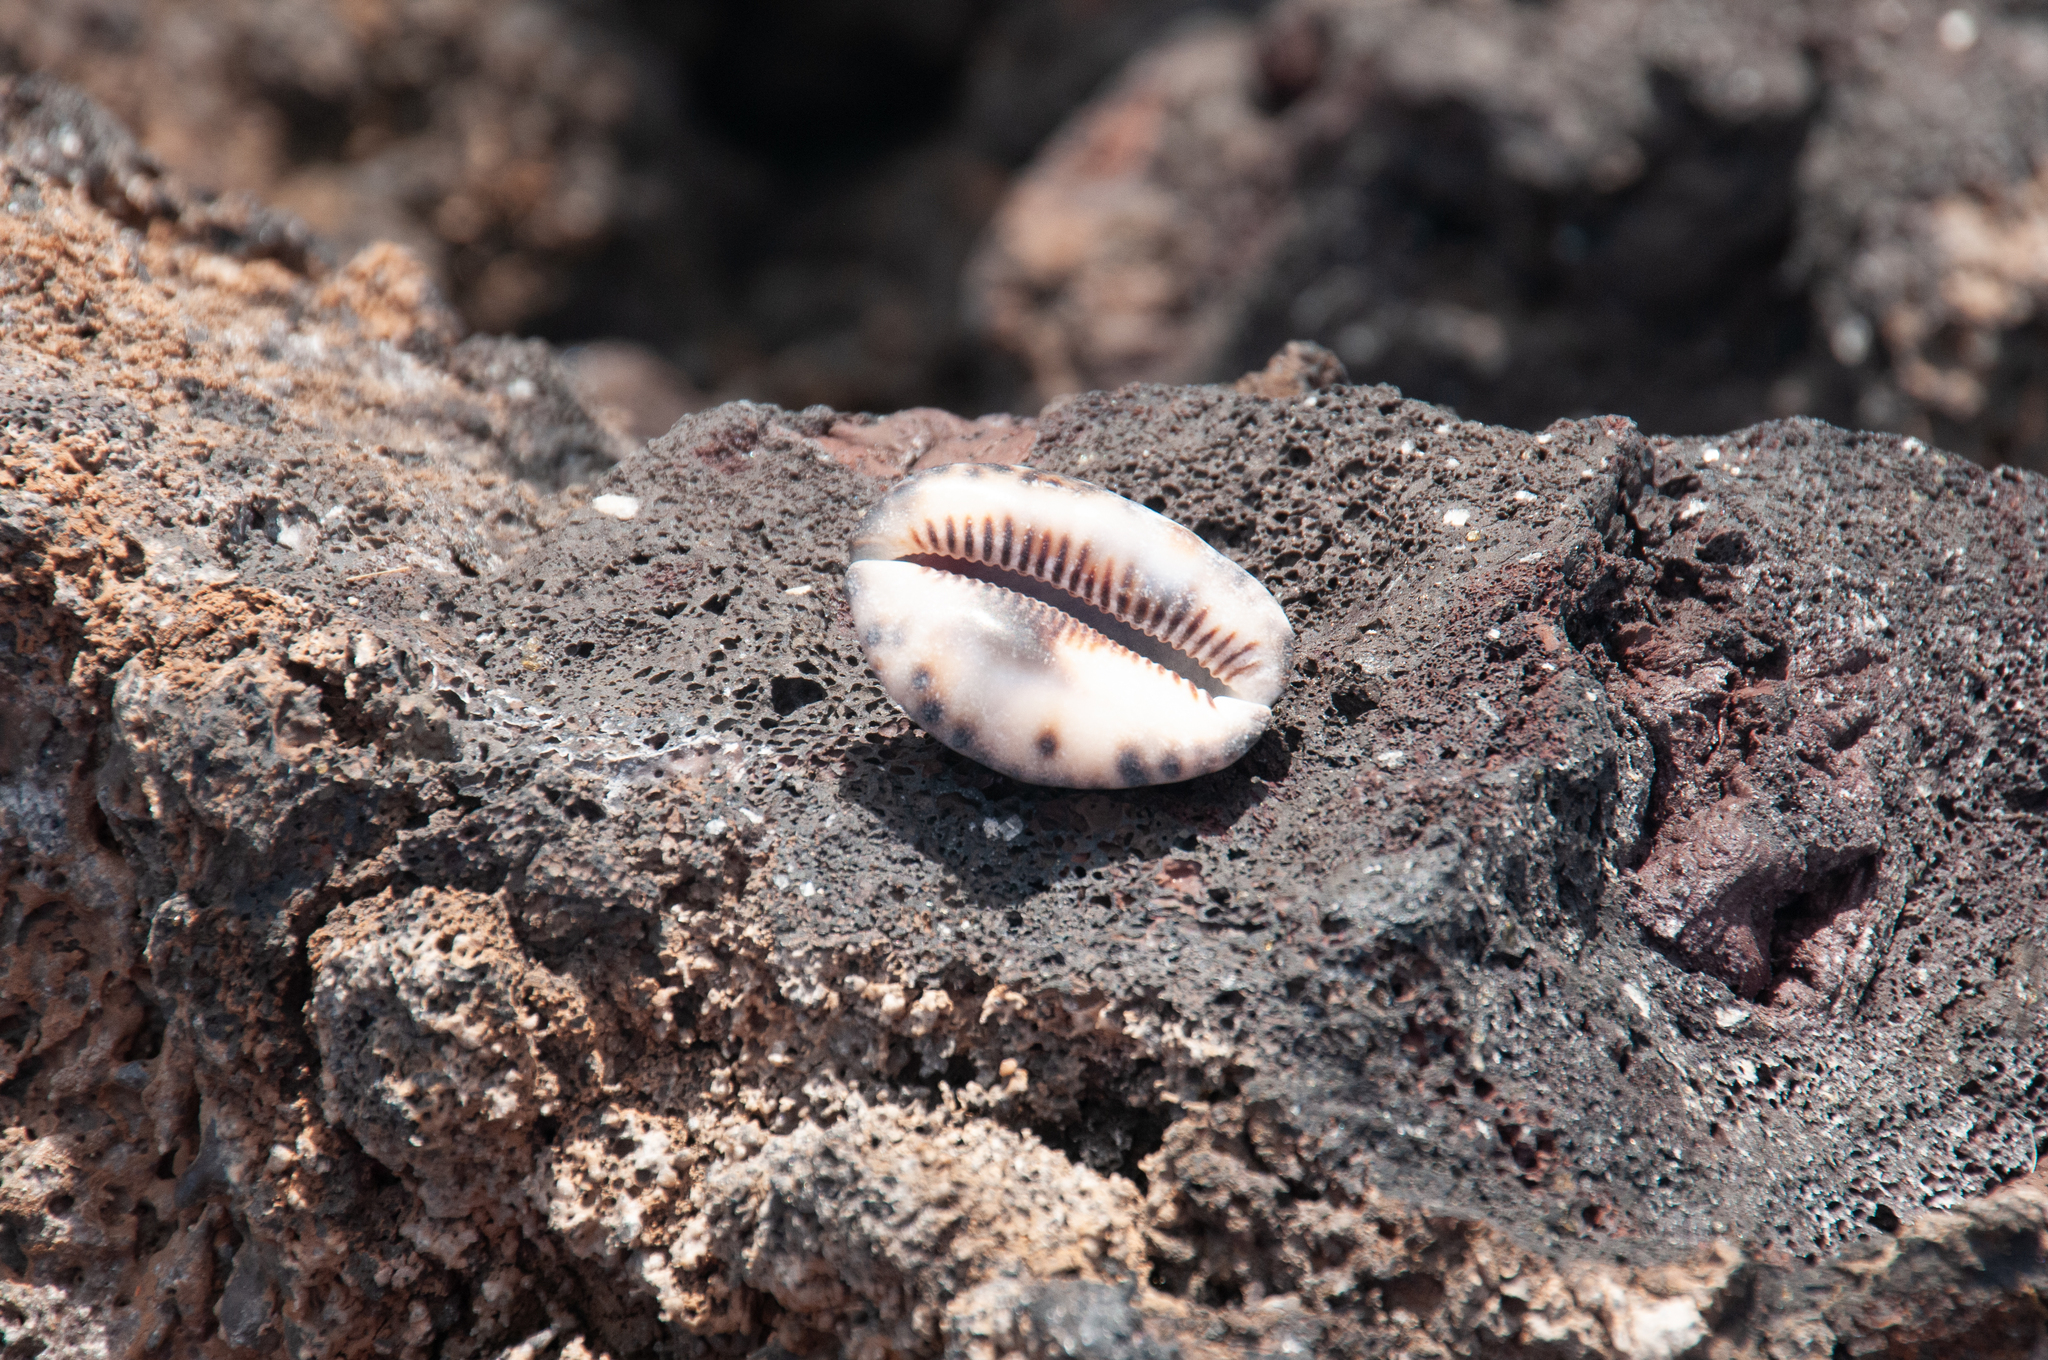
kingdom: Animalia
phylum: Mollusca
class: Gastropoda
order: Littorinimorpha
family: Cypraeidae
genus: Mauritia
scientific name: Mauritia depressa
